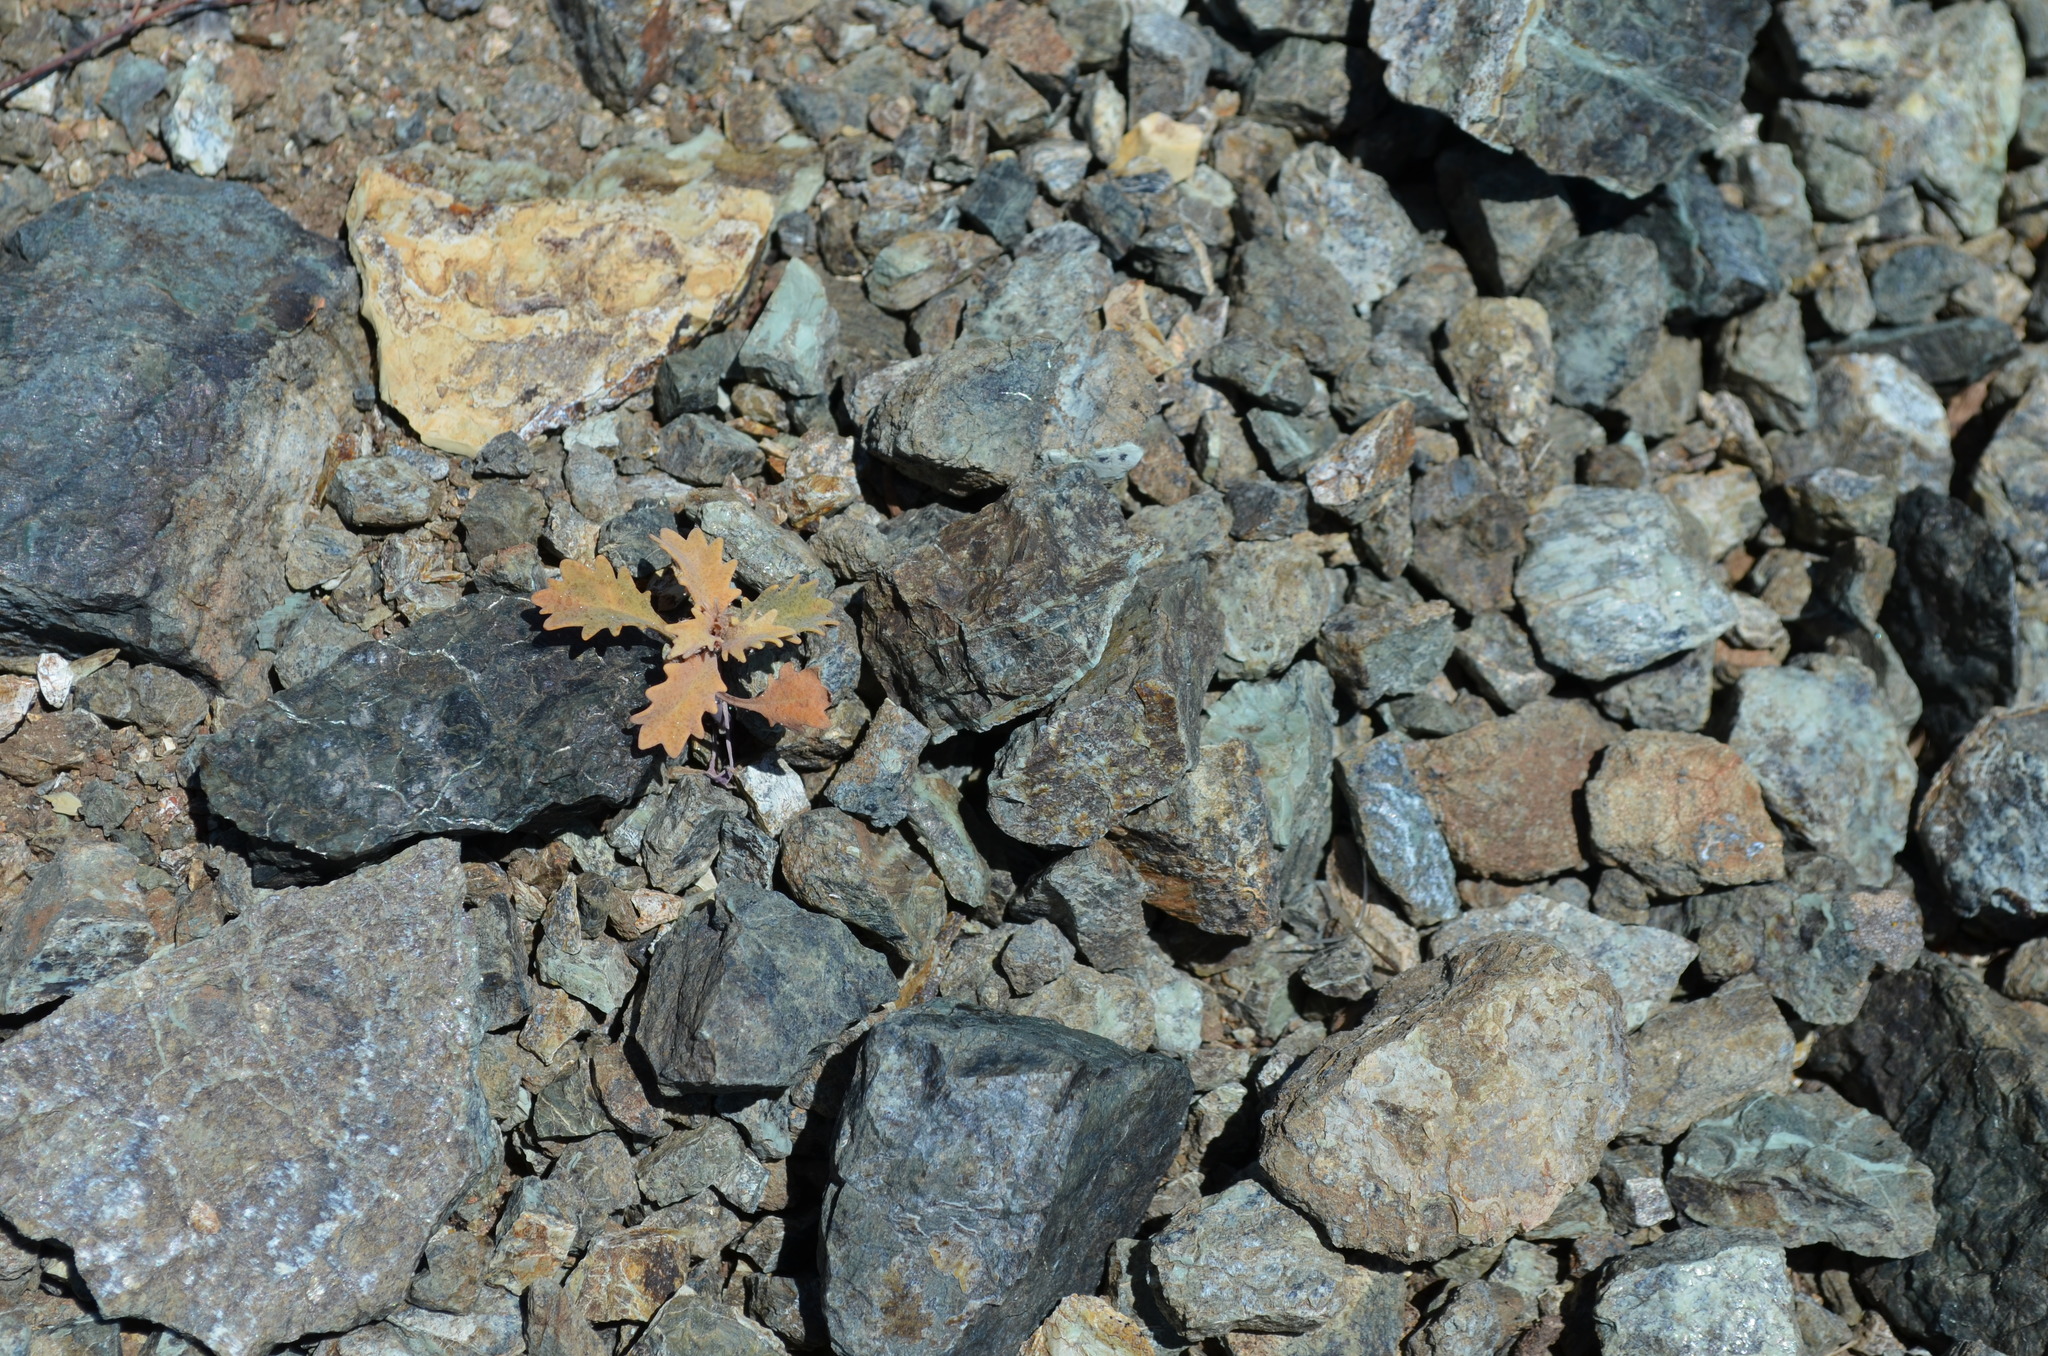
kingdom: Plantae
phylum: Tracheophyta
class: Magnoliopsida
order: Brassicales
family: Brassicaceae
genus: Streptanthus
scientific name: Streptanthus glandulosus
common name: Jewel-flower
